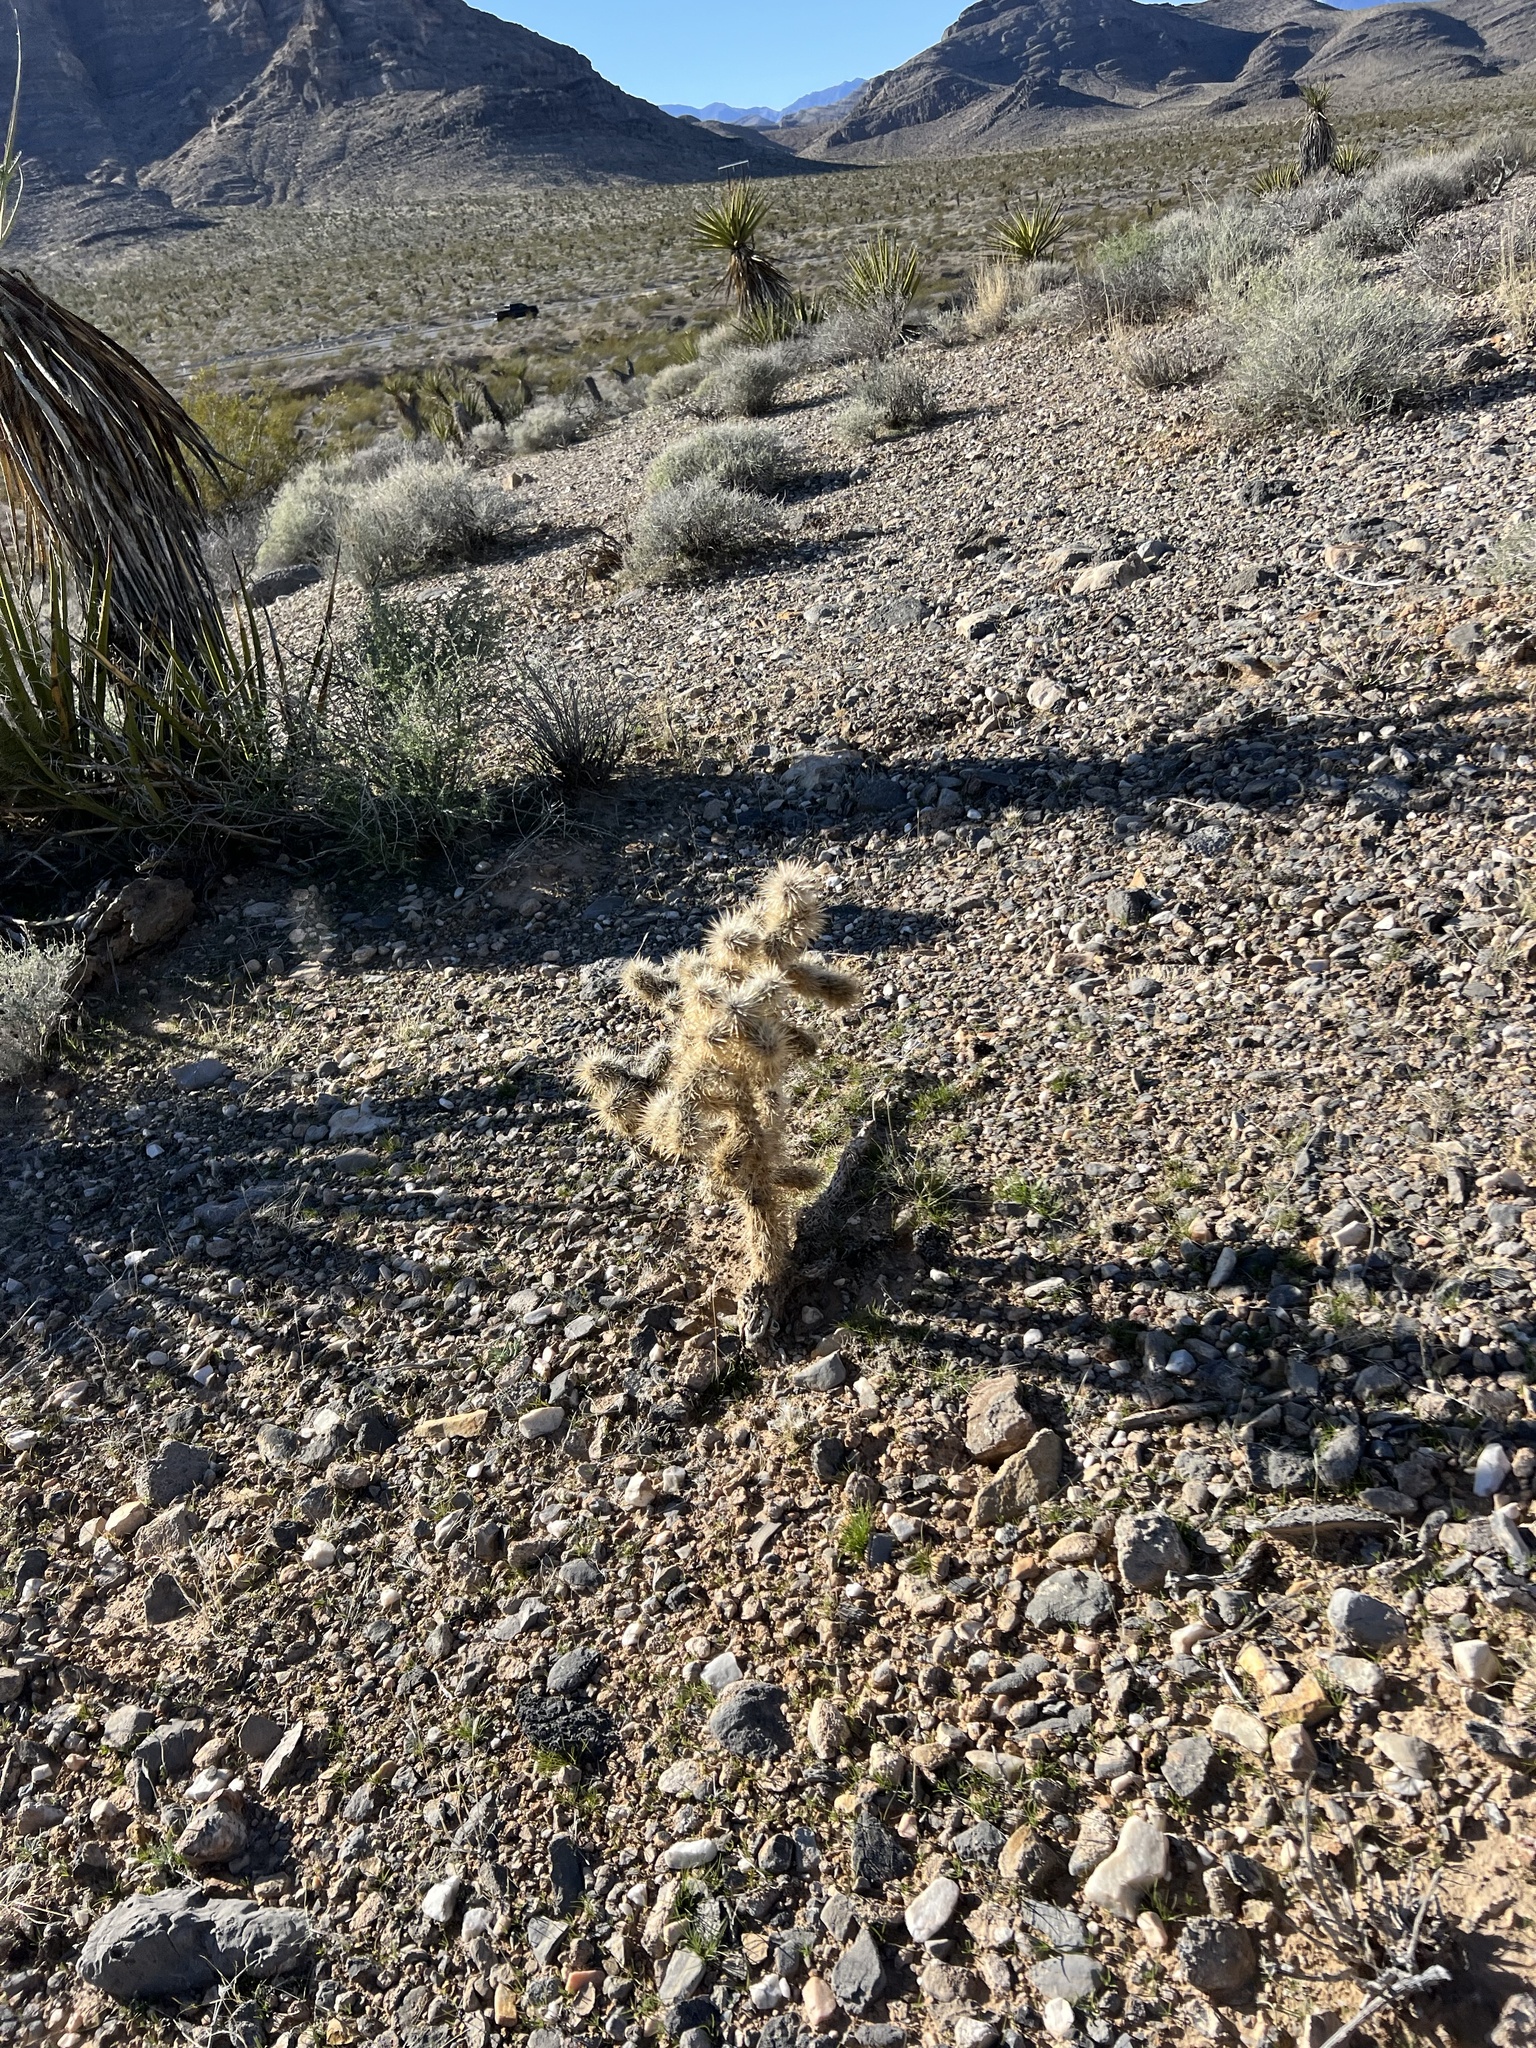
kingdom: Plantae
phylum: Tracheophyta
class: Magnoliopsida
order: Caryophyllales
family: Cactaceae
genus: Cylindropuntia
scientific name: Cylindropuntia echinocarpa
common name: Ground cholla
